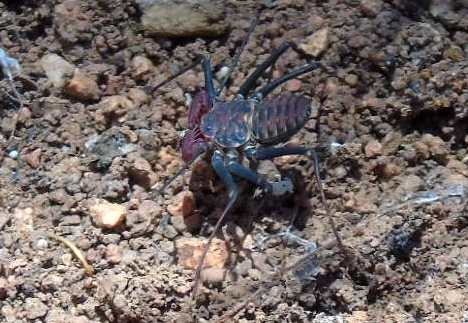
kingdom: Animalia
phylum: Arthropoda
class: Arachnida
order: Amblypygi
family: Phrynidae
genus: Phrynus
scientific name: Phrynus operculatus
